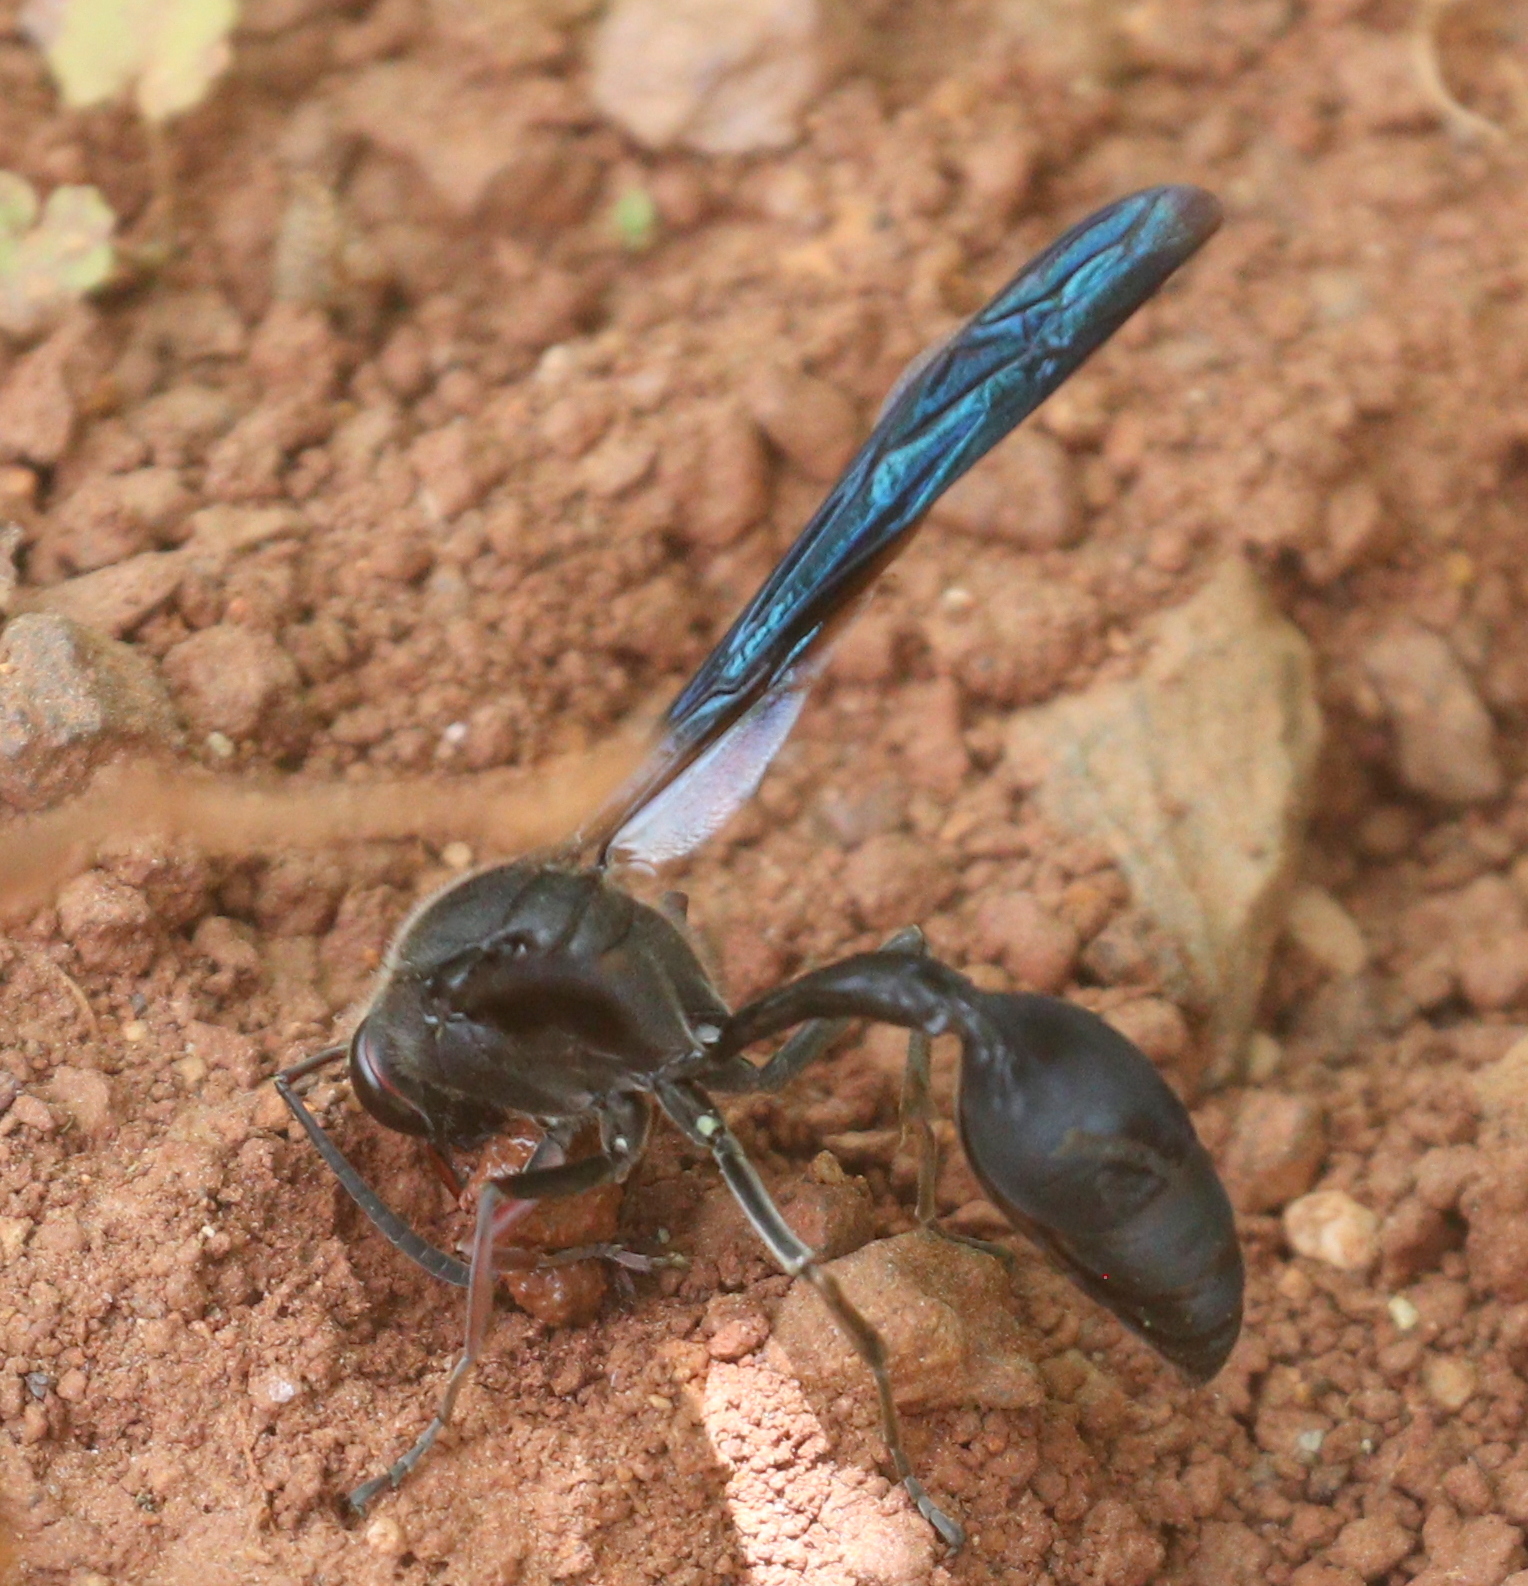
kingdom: Animalia
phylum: Arthropoda
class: Insecta
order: Hymenoptera
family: Eumenidae
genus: Delta
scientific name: Delta
